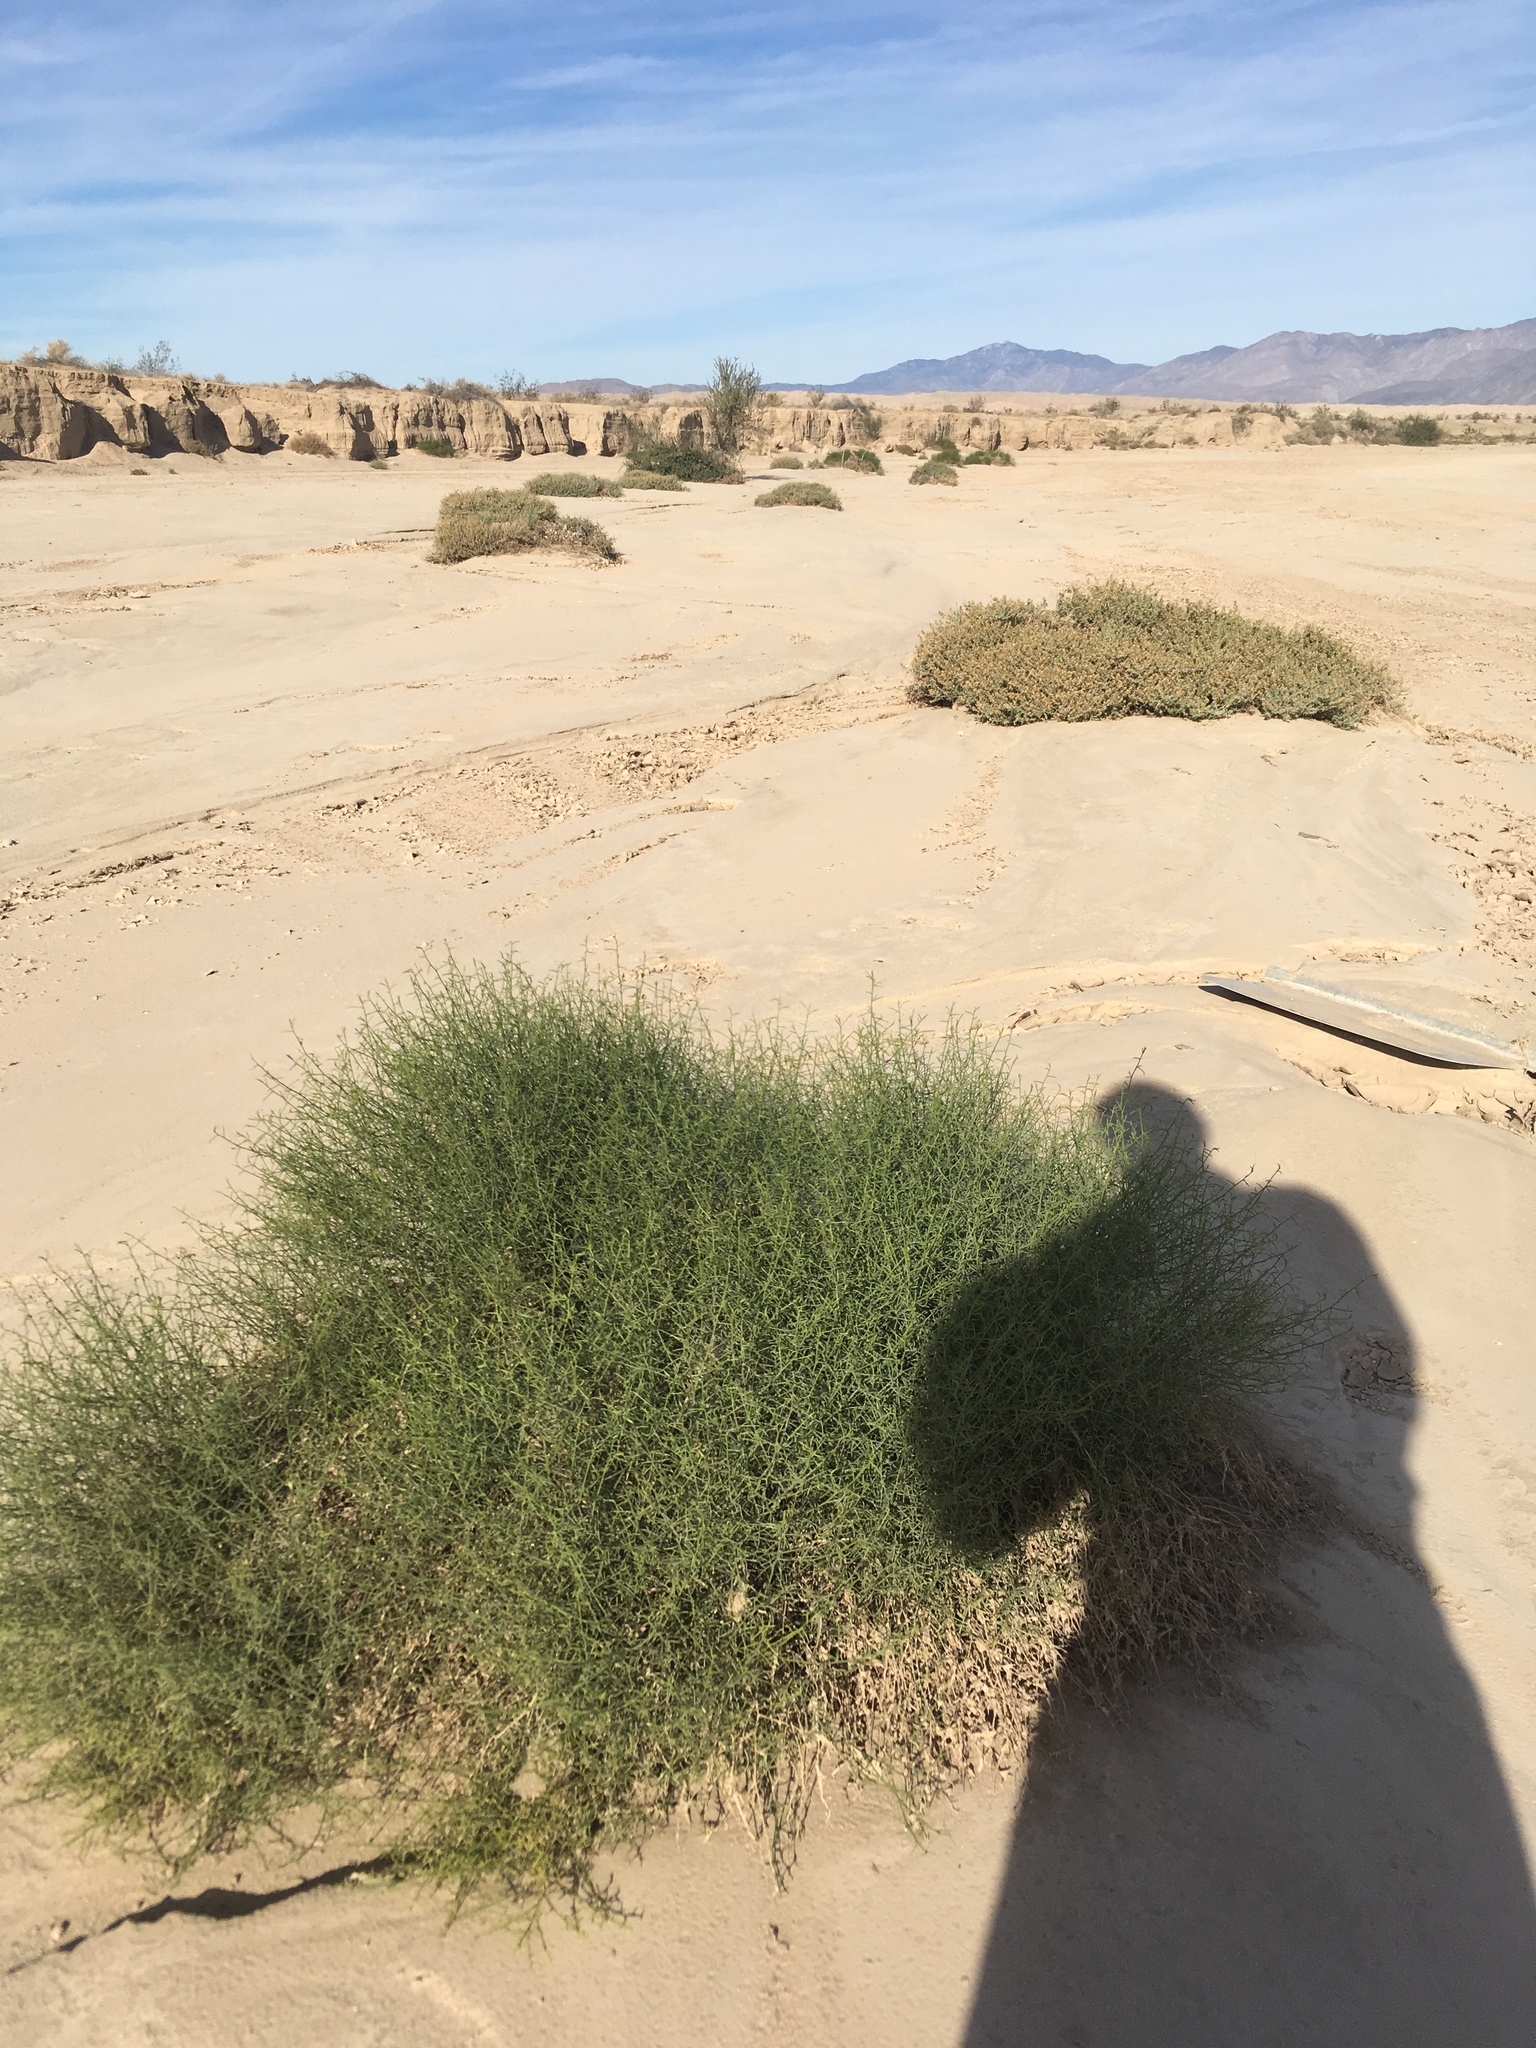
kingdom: Plantae
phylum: Tracheophyta
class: Magnoliopsida
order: Asterales
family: Asteraceae
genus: Ambrosia
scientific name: Ambrosia salsola
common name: Burrobrush
